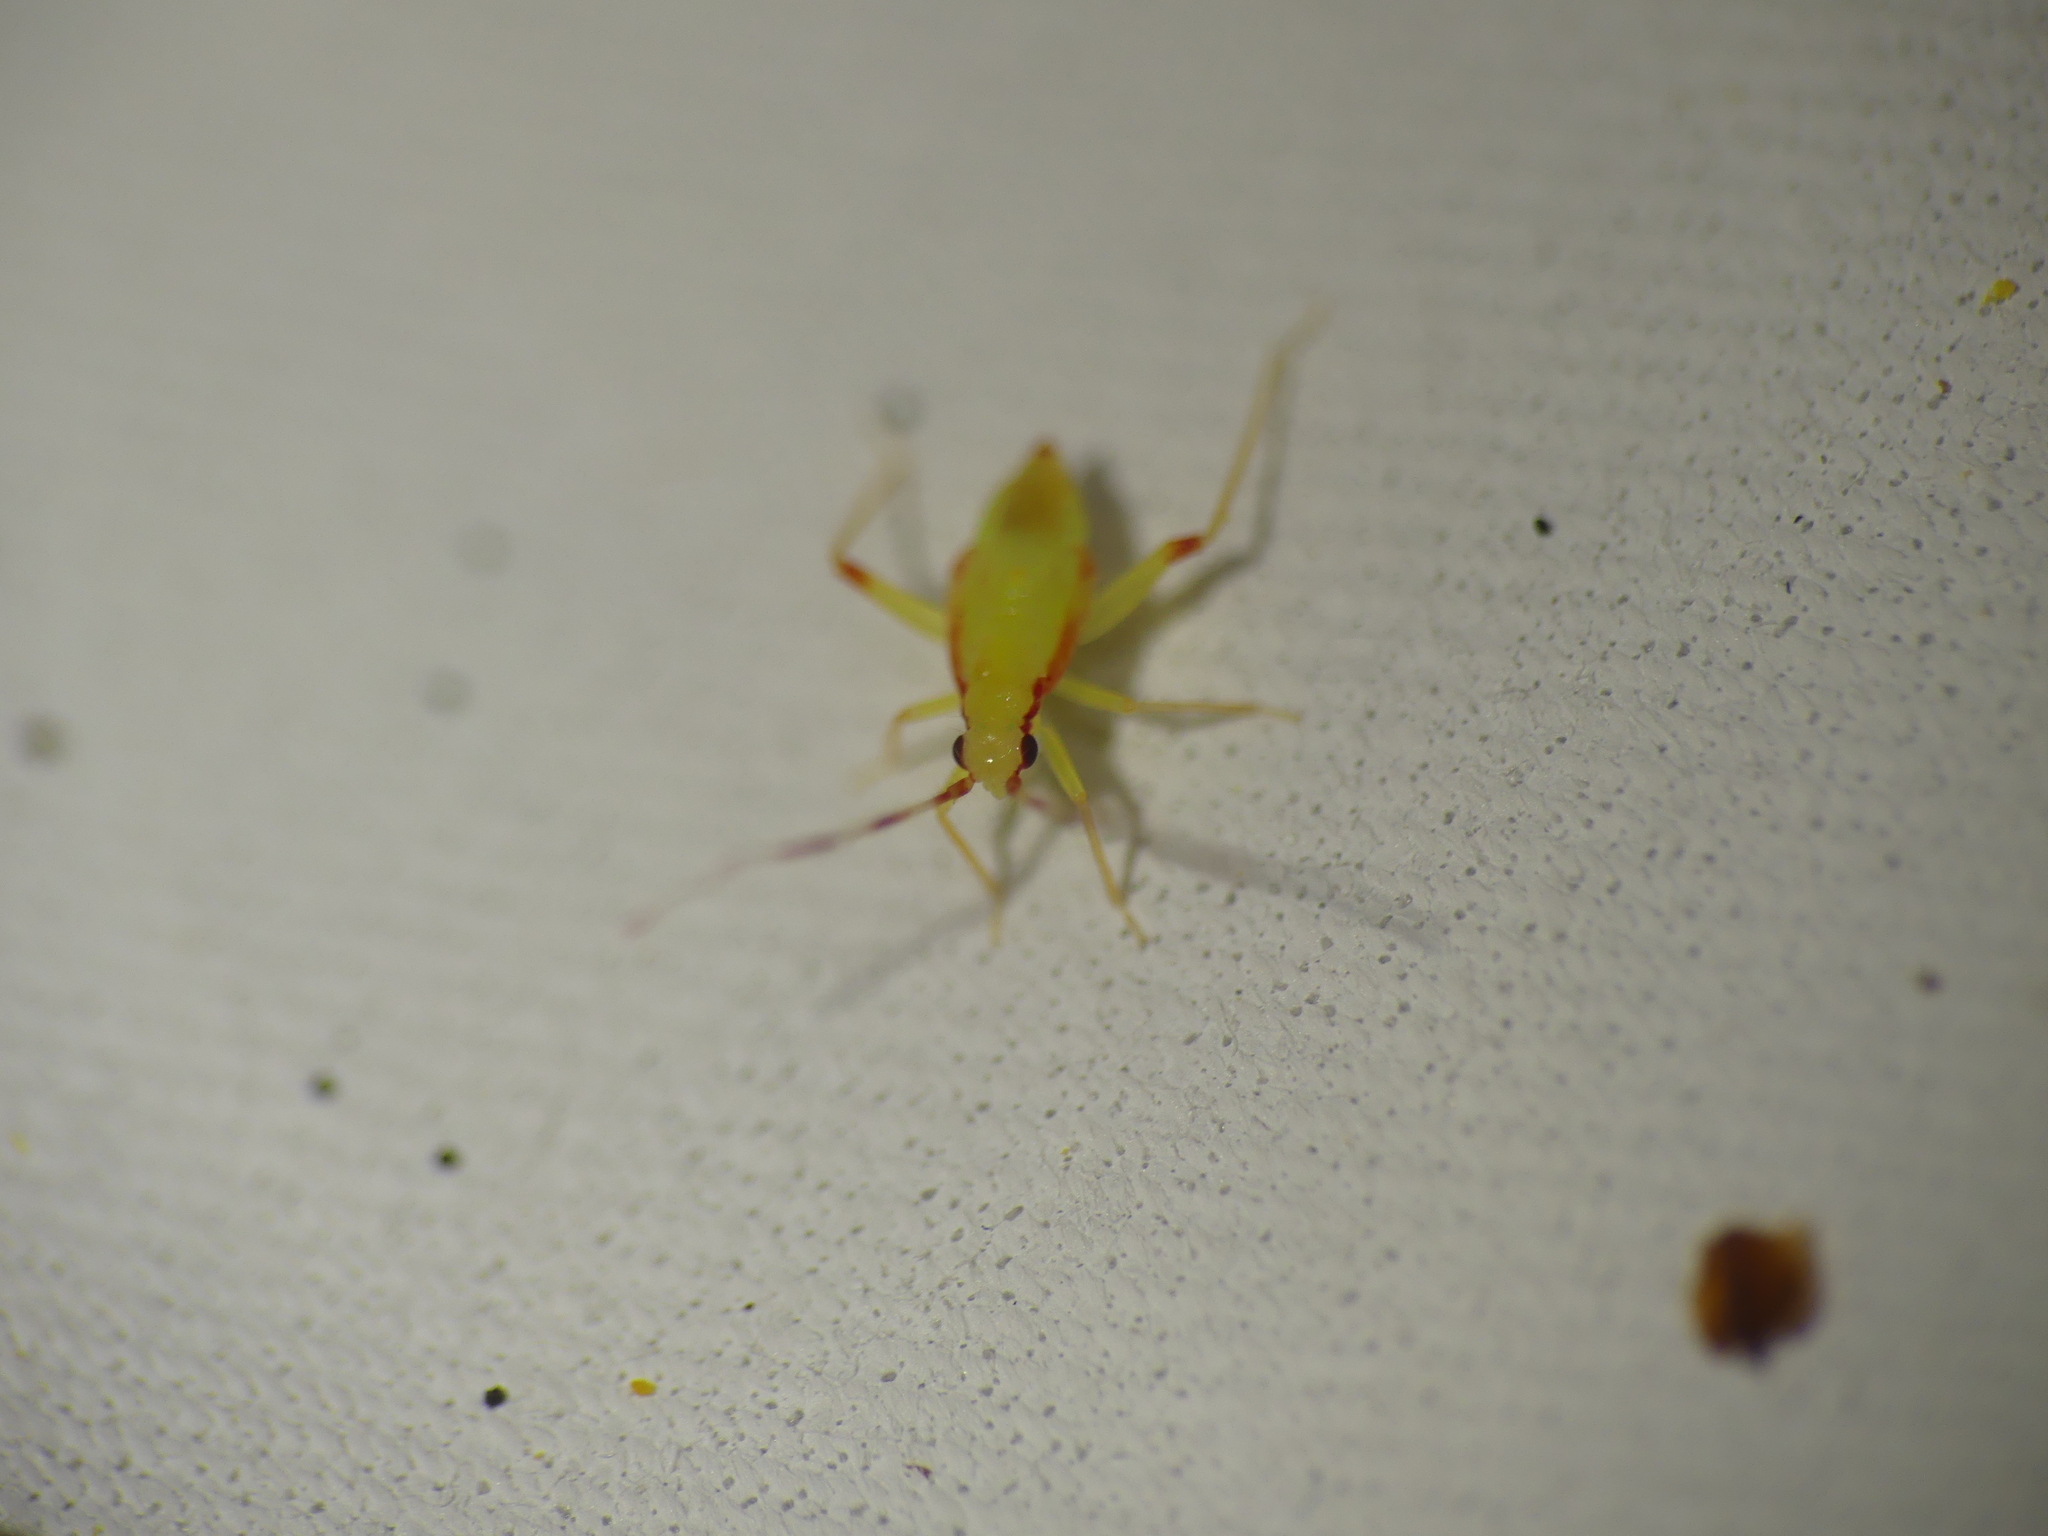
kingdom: Animalia
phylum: Arthropoda
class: Insecta
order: Hemiptera
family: Miridae
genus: Campyloneura
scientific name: Campyloneura virgula
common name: Predatory bug
